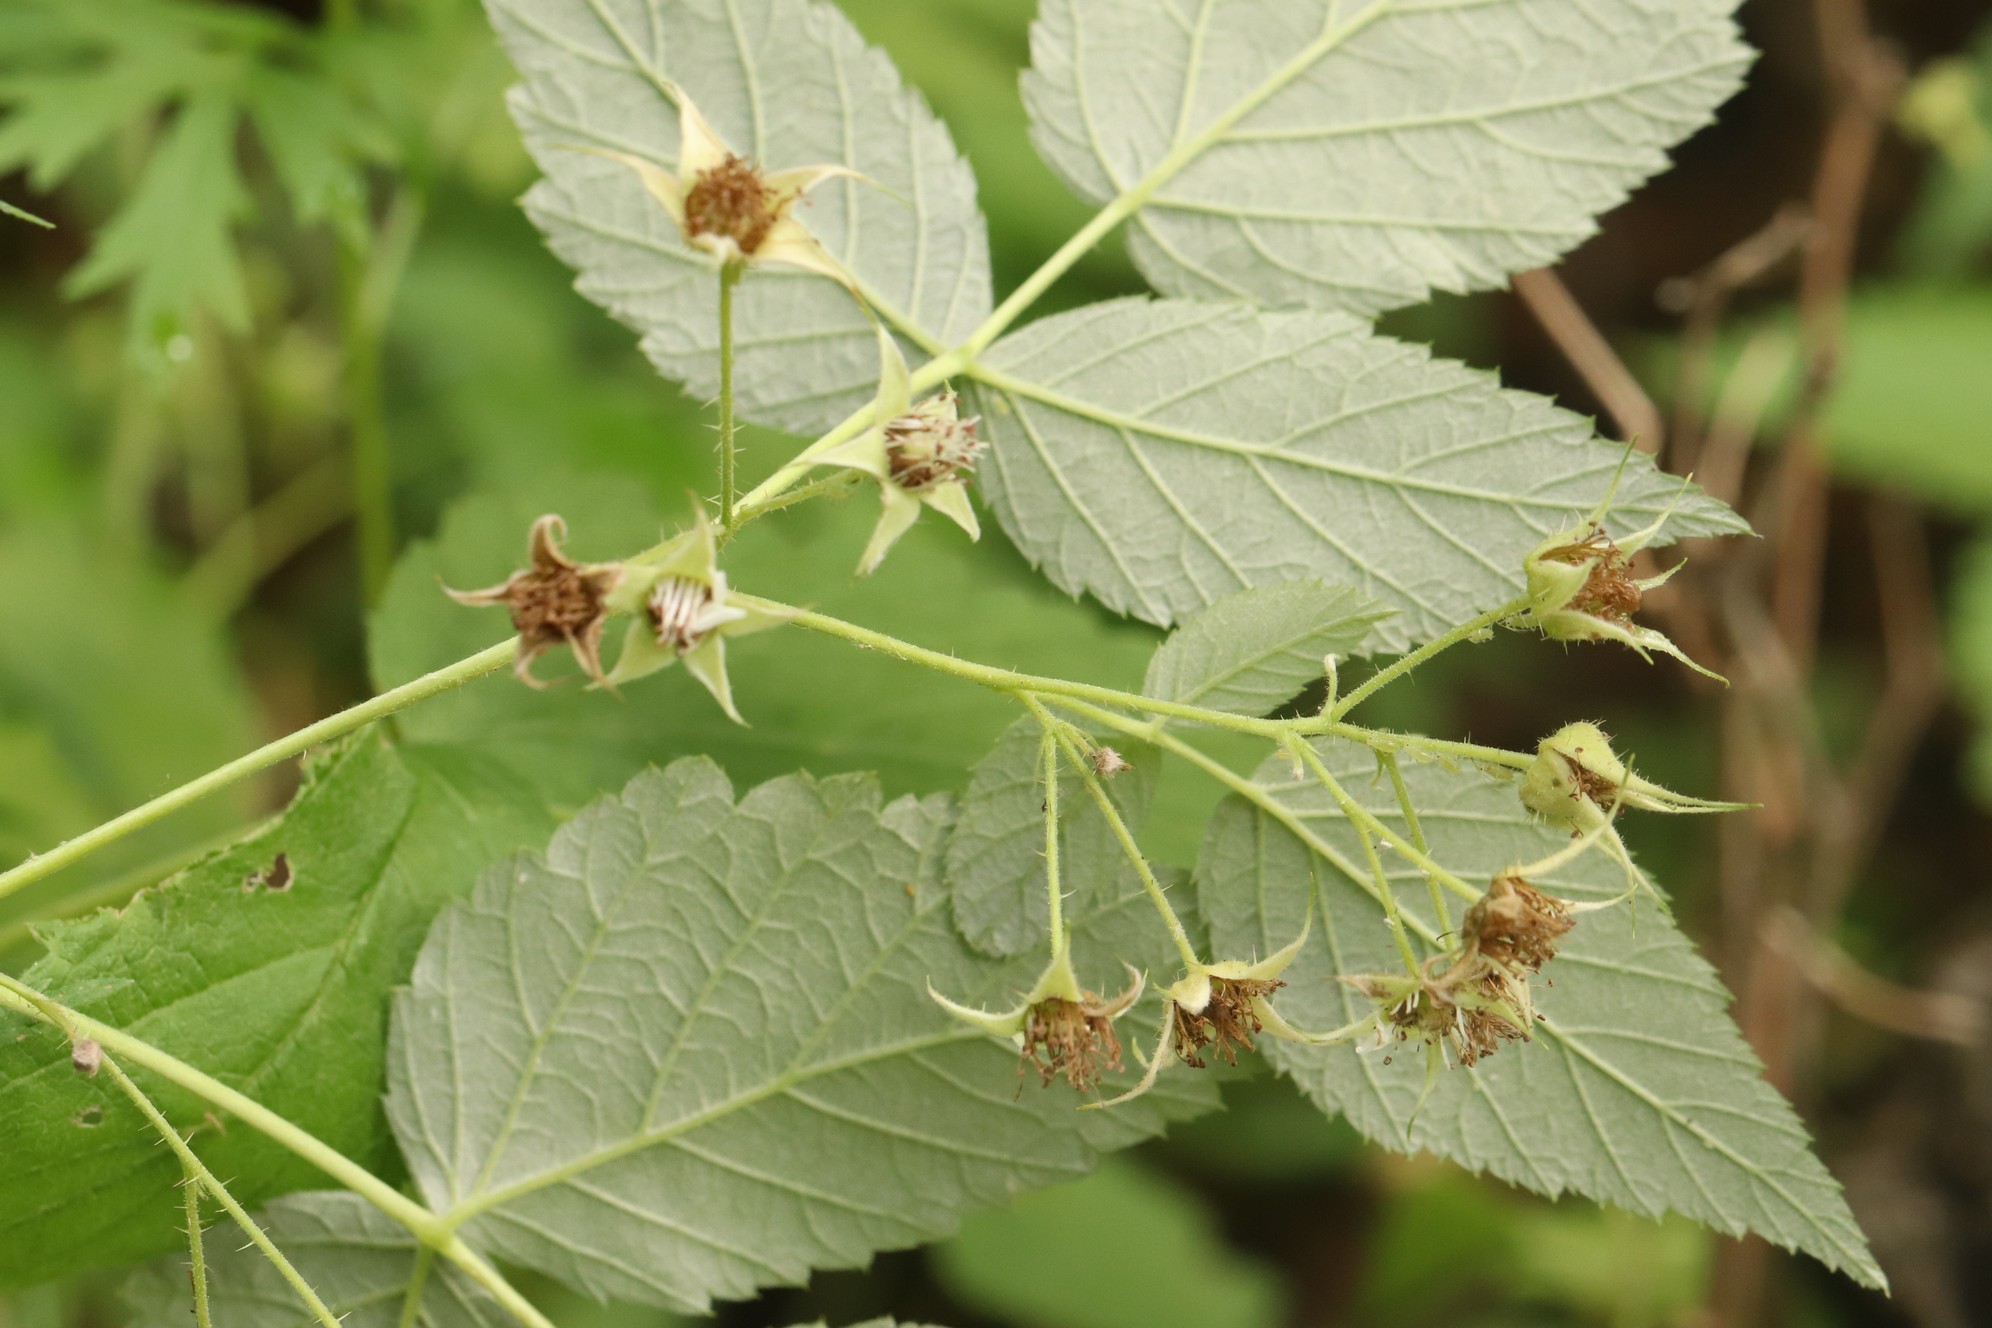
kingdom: Plantae
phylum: Tracheophyta
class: Magnoliopsida
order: Rosales
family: Rosaceae
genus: Rubus
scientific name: Rubus sachalinensis
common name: Red raspberry
